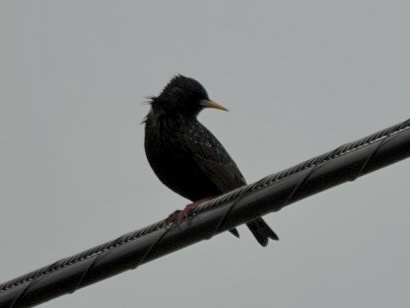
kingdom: Animalia
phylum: Chordata
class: Aves
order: Passeriformes
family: Sturnidae
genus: Sturnus
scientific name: Sturnus vulgaris
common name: Common starling
